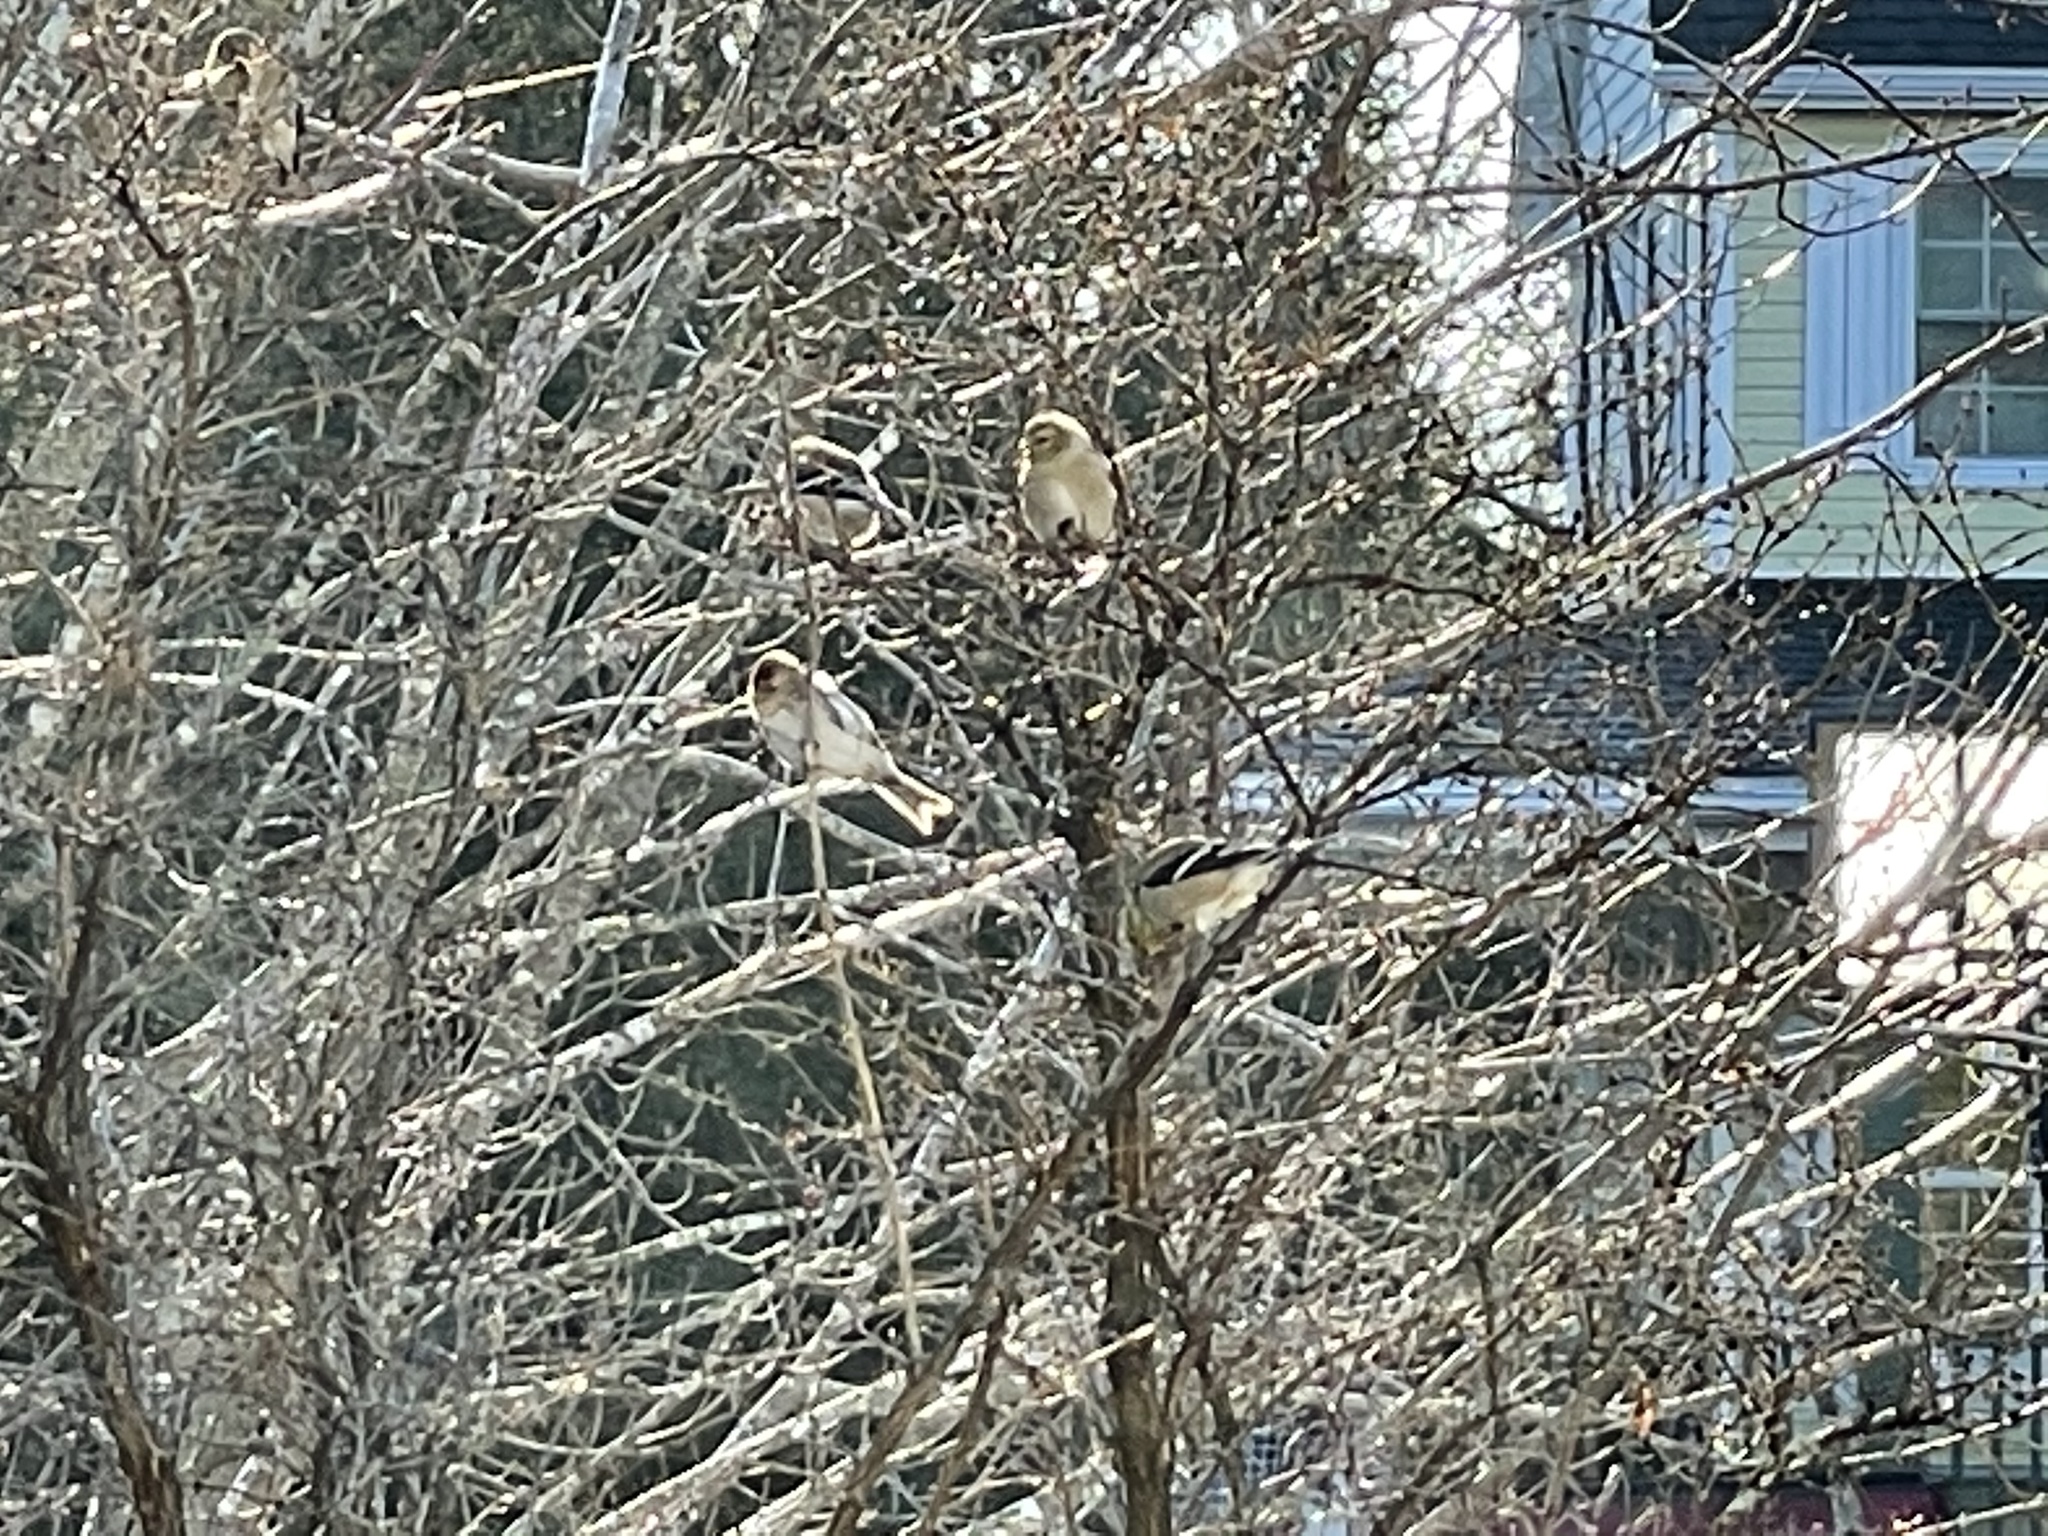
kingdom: Animalia
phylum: Chordata
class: Aves
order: Passeriformes
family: Fringillidae
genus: Spinus
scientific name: Spinus tristis
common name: American goldfinch
